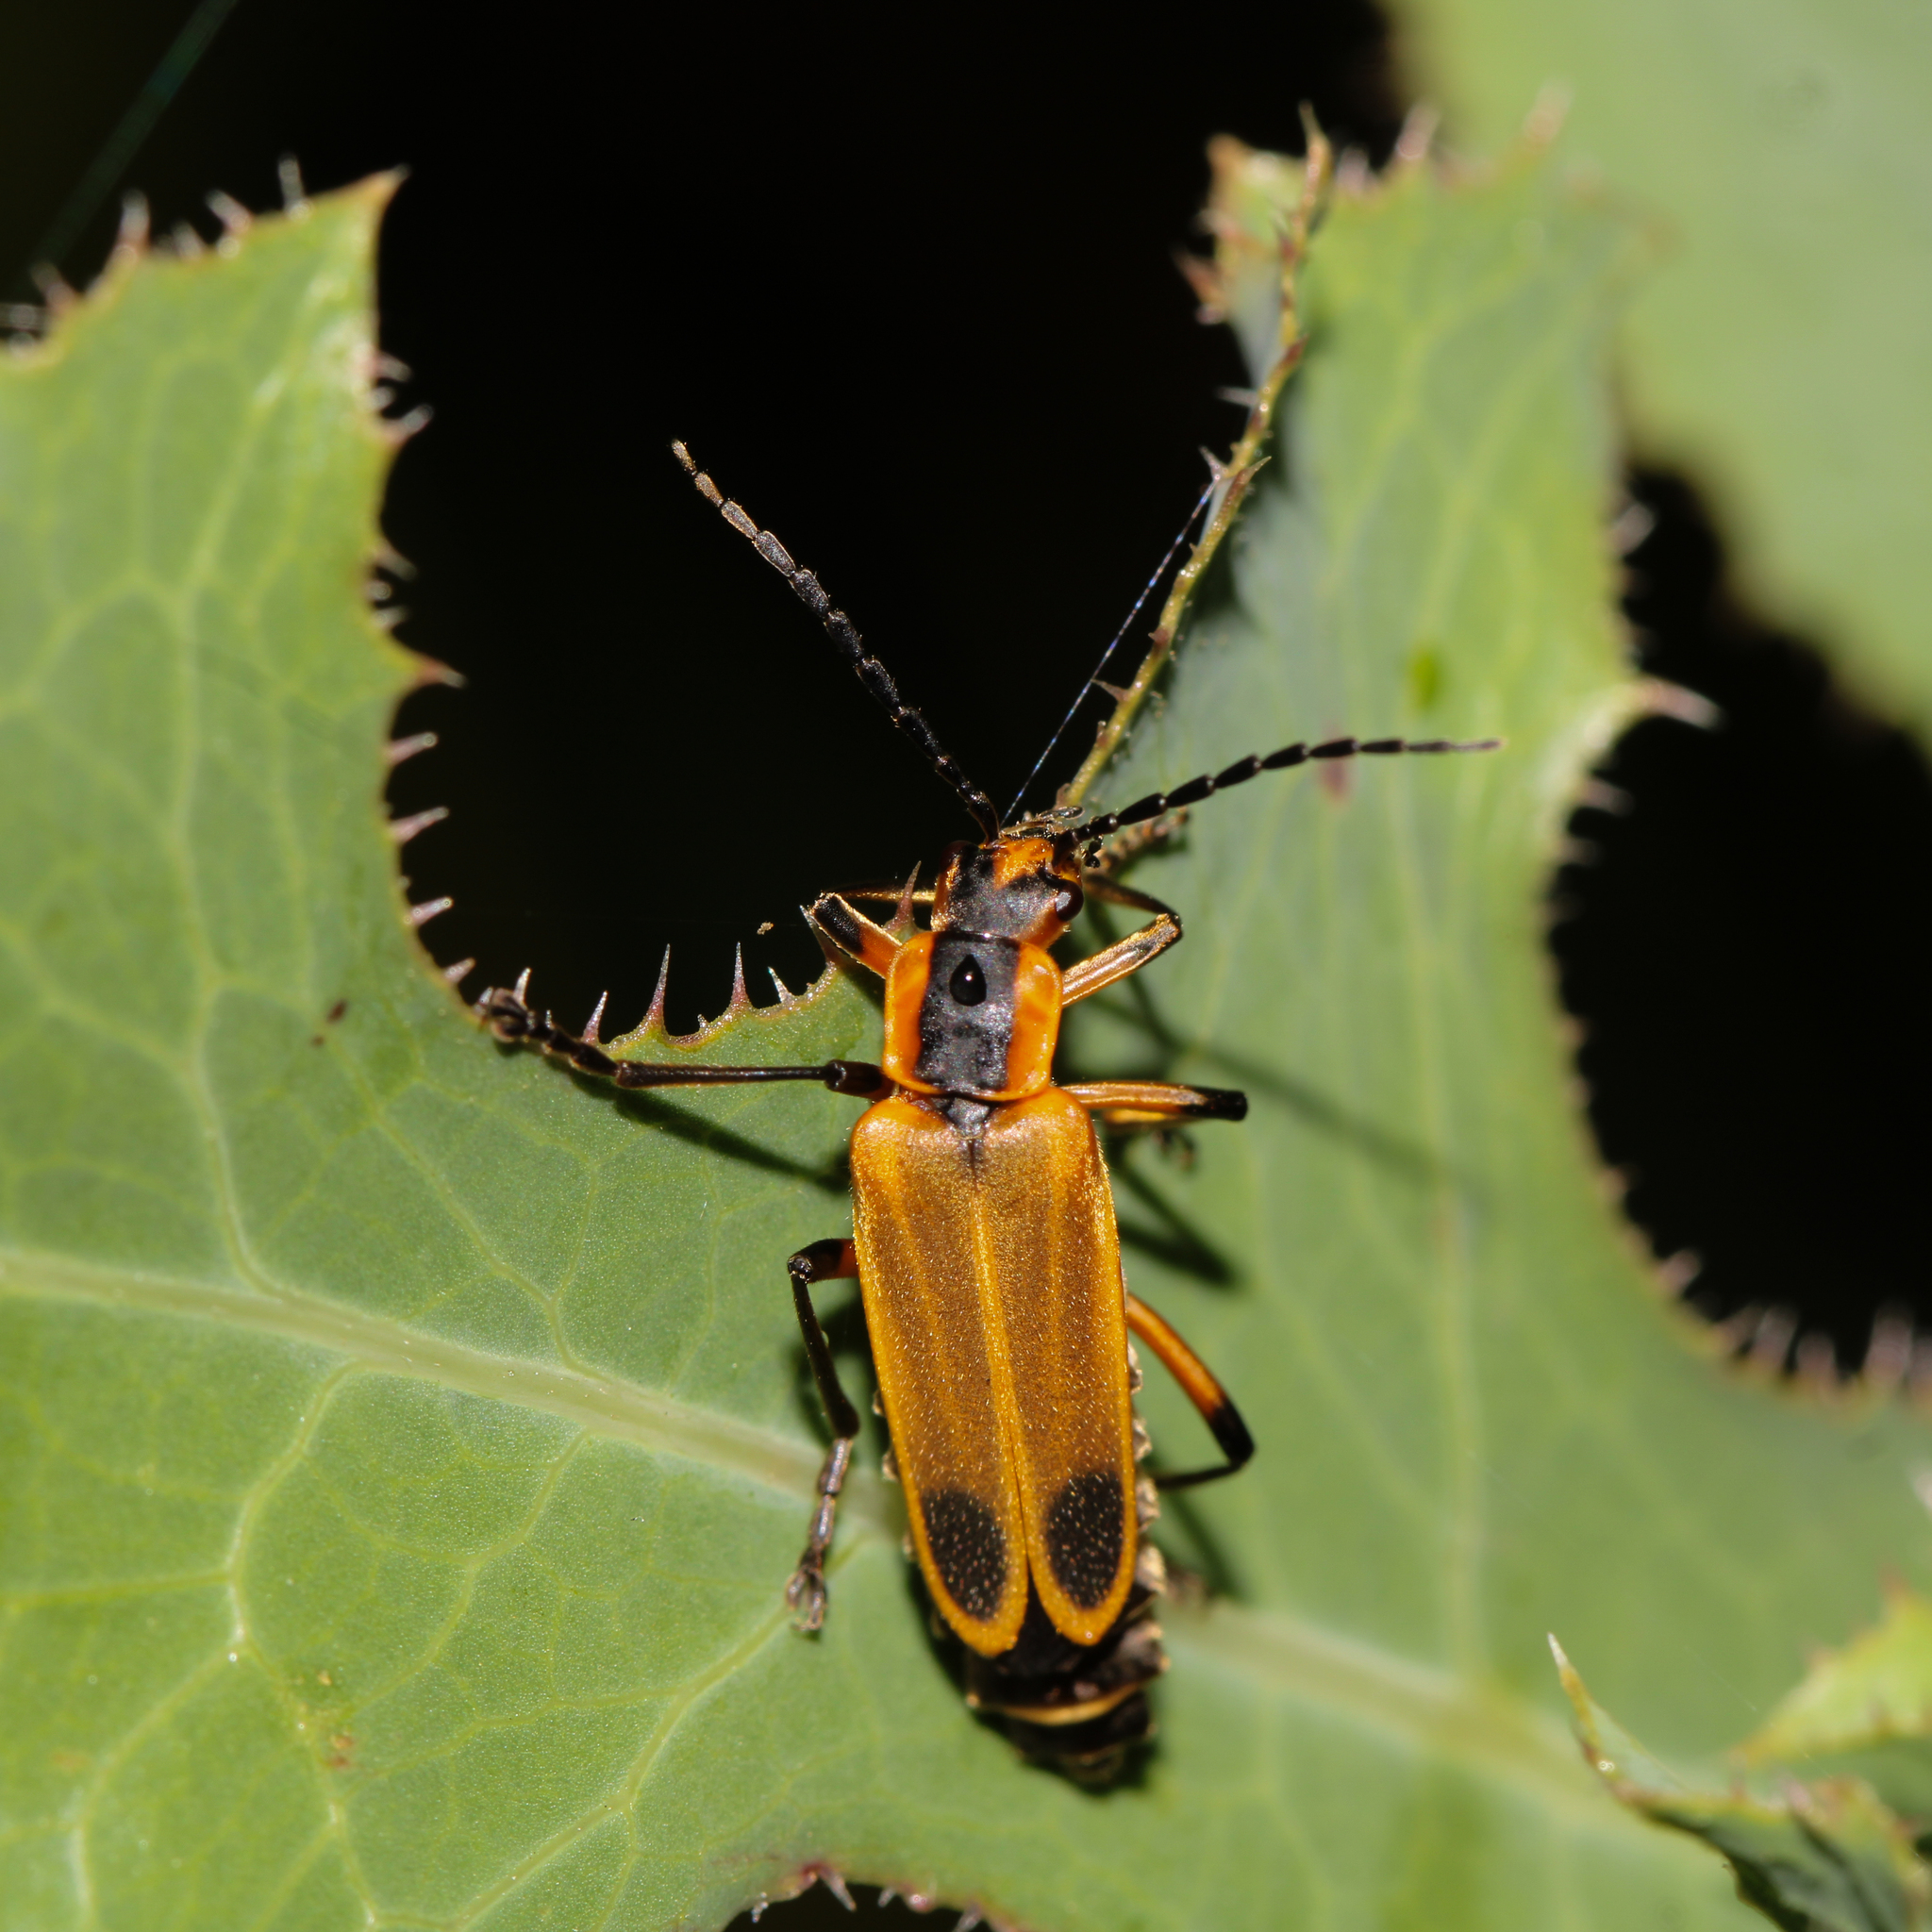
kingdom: Animalia
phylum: Arthropoda
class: Insecta
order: Coleoptera
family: Cantharidae
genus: Chauliognathus
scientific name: Chauliognathus marginatus
